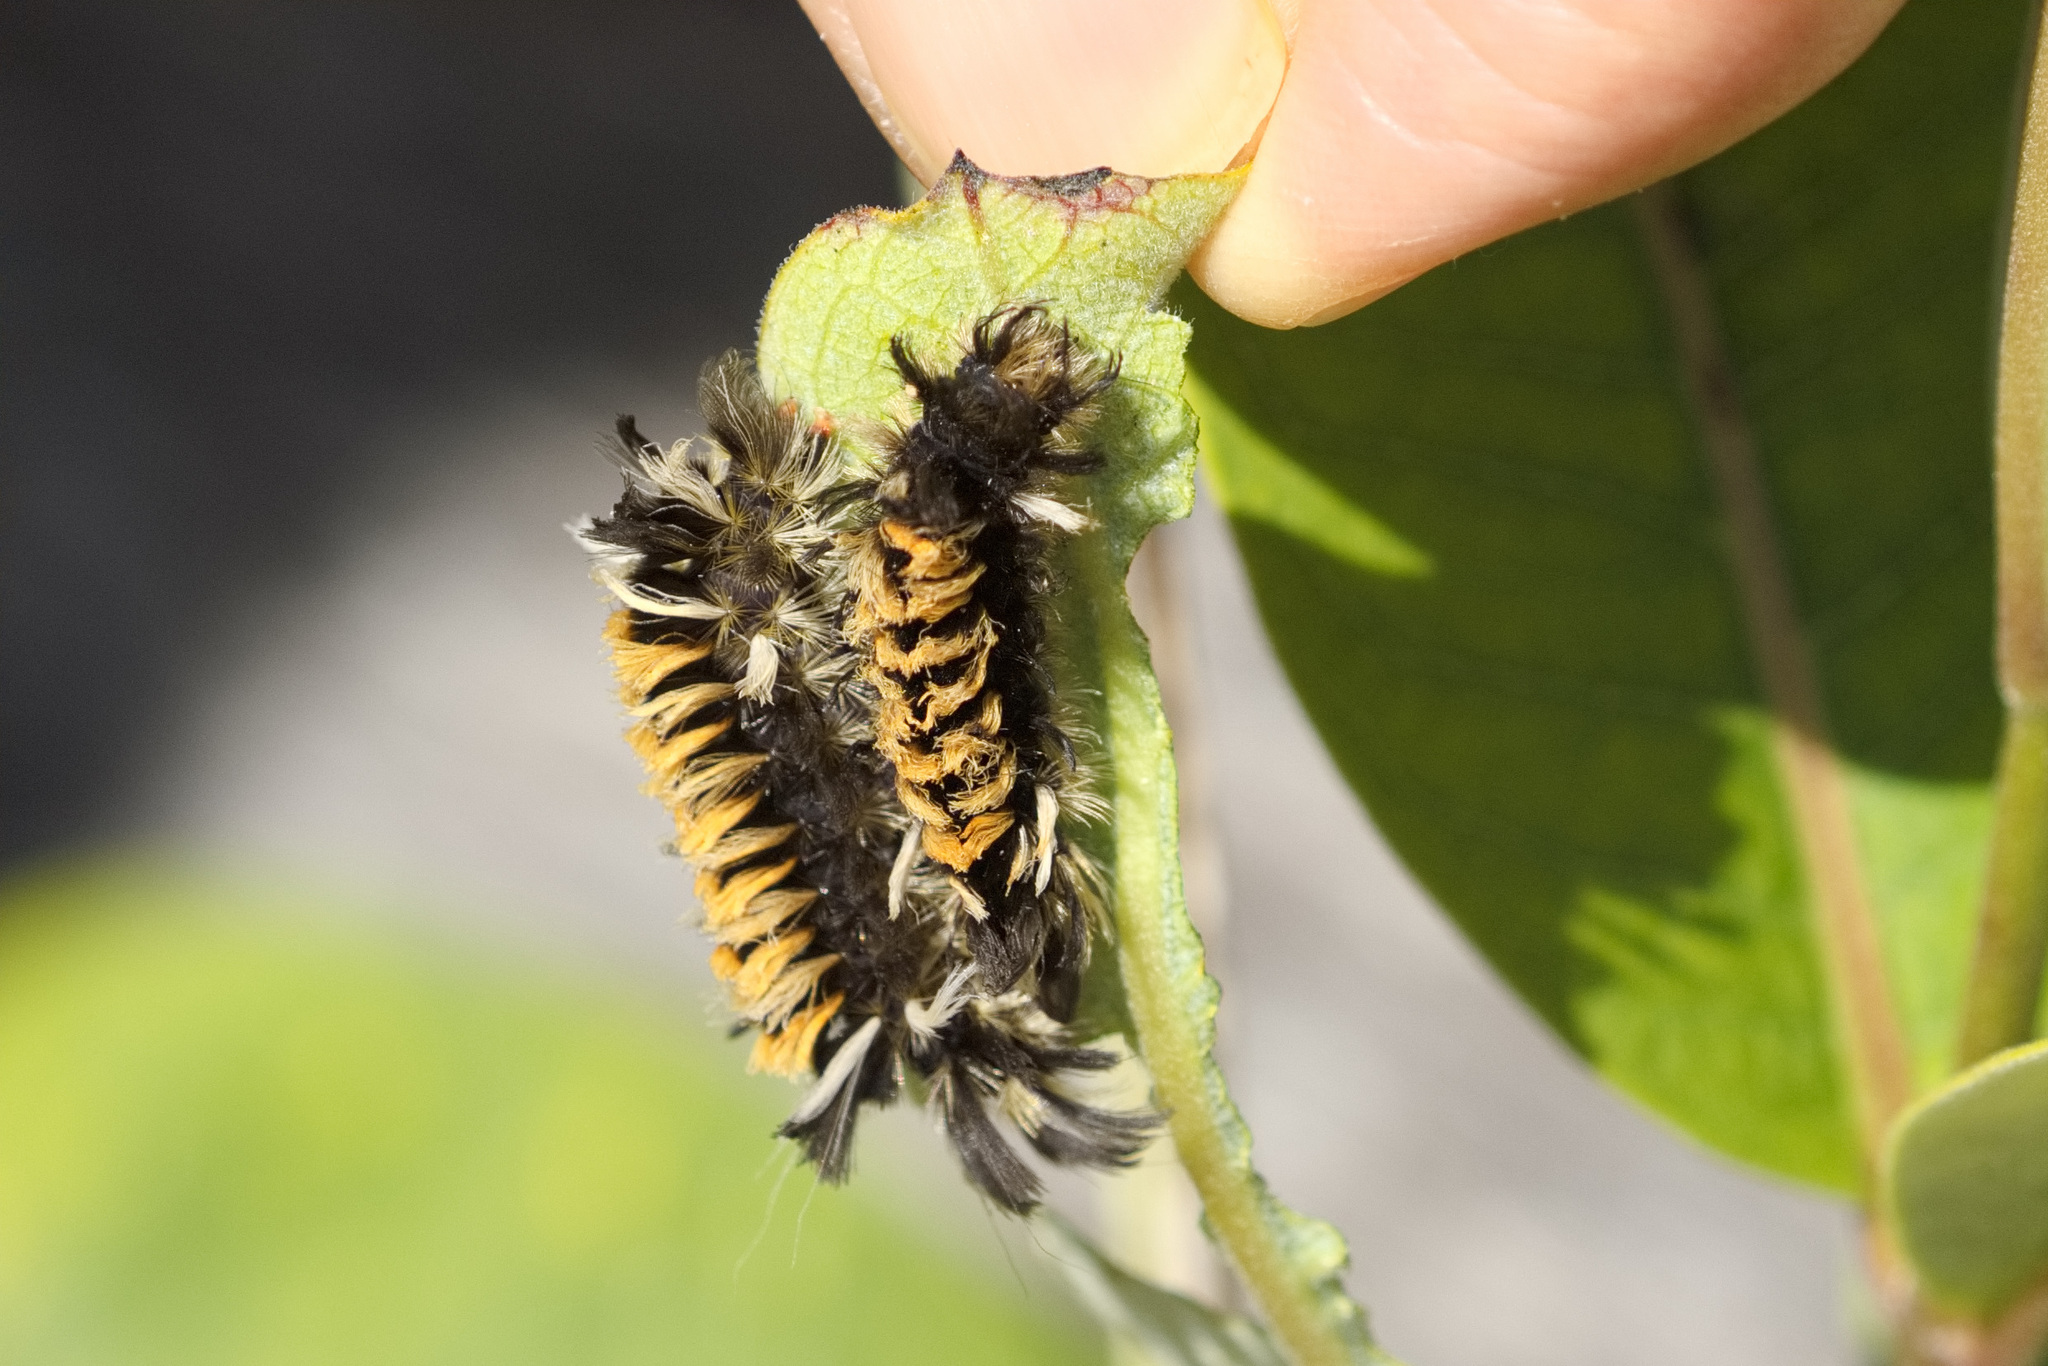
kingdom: Animalia
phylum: Arthropoda
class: Insecta
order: Lepidoptera
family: Erebidae
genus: Euchaetes
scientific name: Euchaetes egle
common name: Milkweed tussock moth
